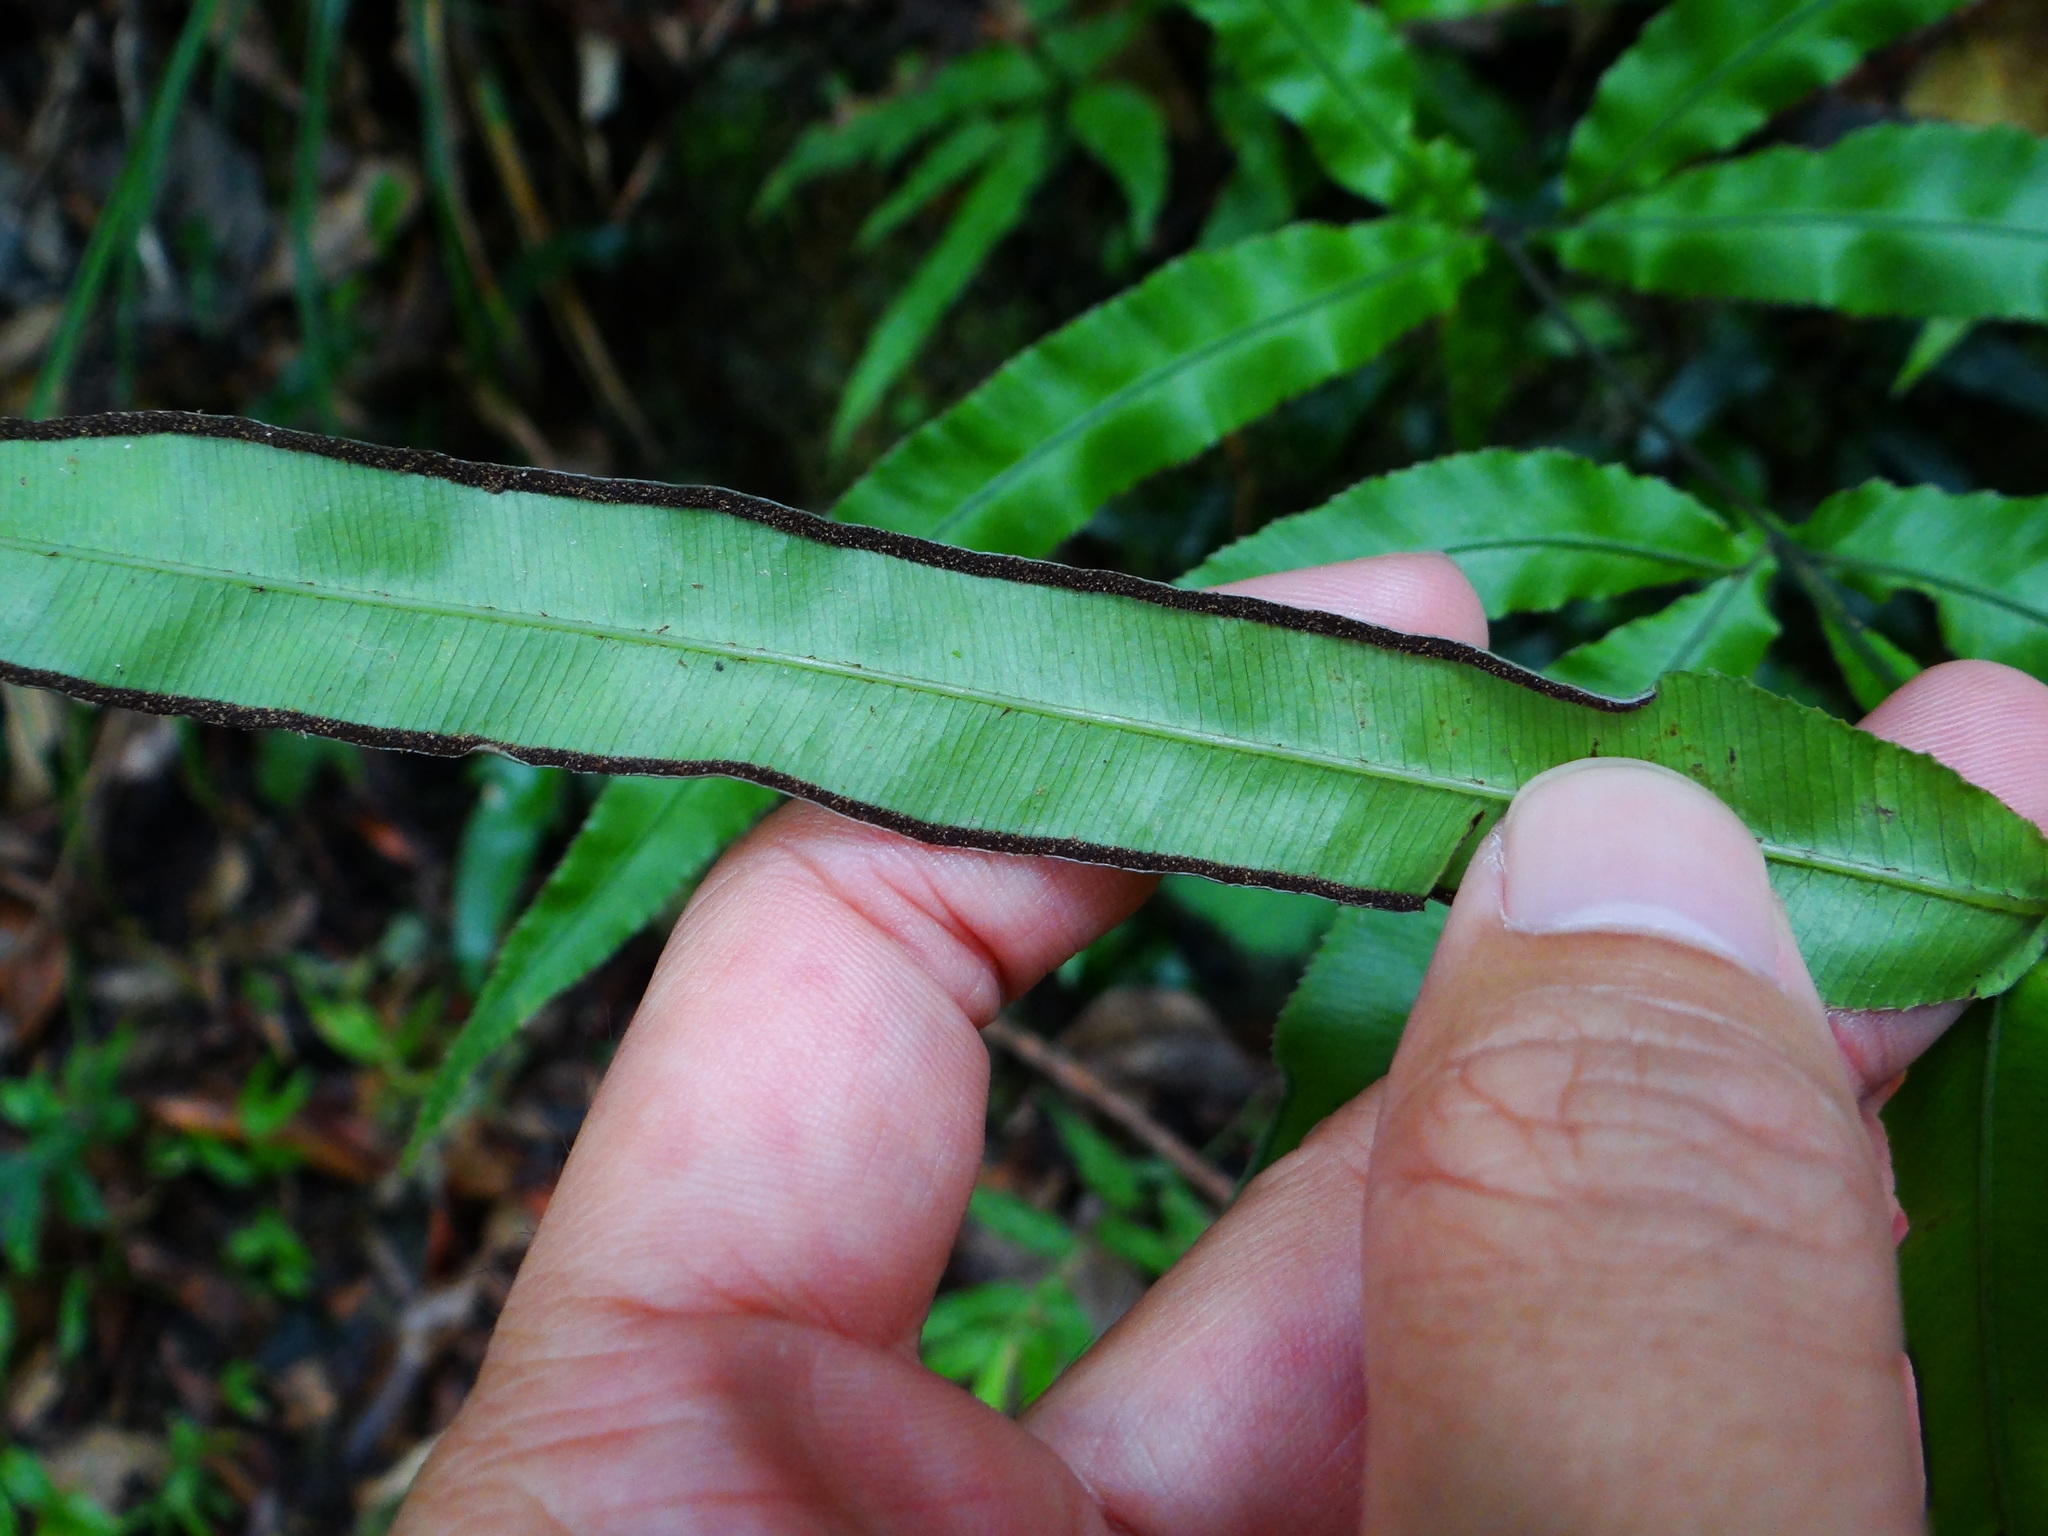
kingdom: Plantae
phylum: Tracheophyta
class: Polypodiopsida
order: Polypodiales
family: Pteridaceae
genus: Pteris
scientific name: Pteris cretica
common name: Ribbon fern
